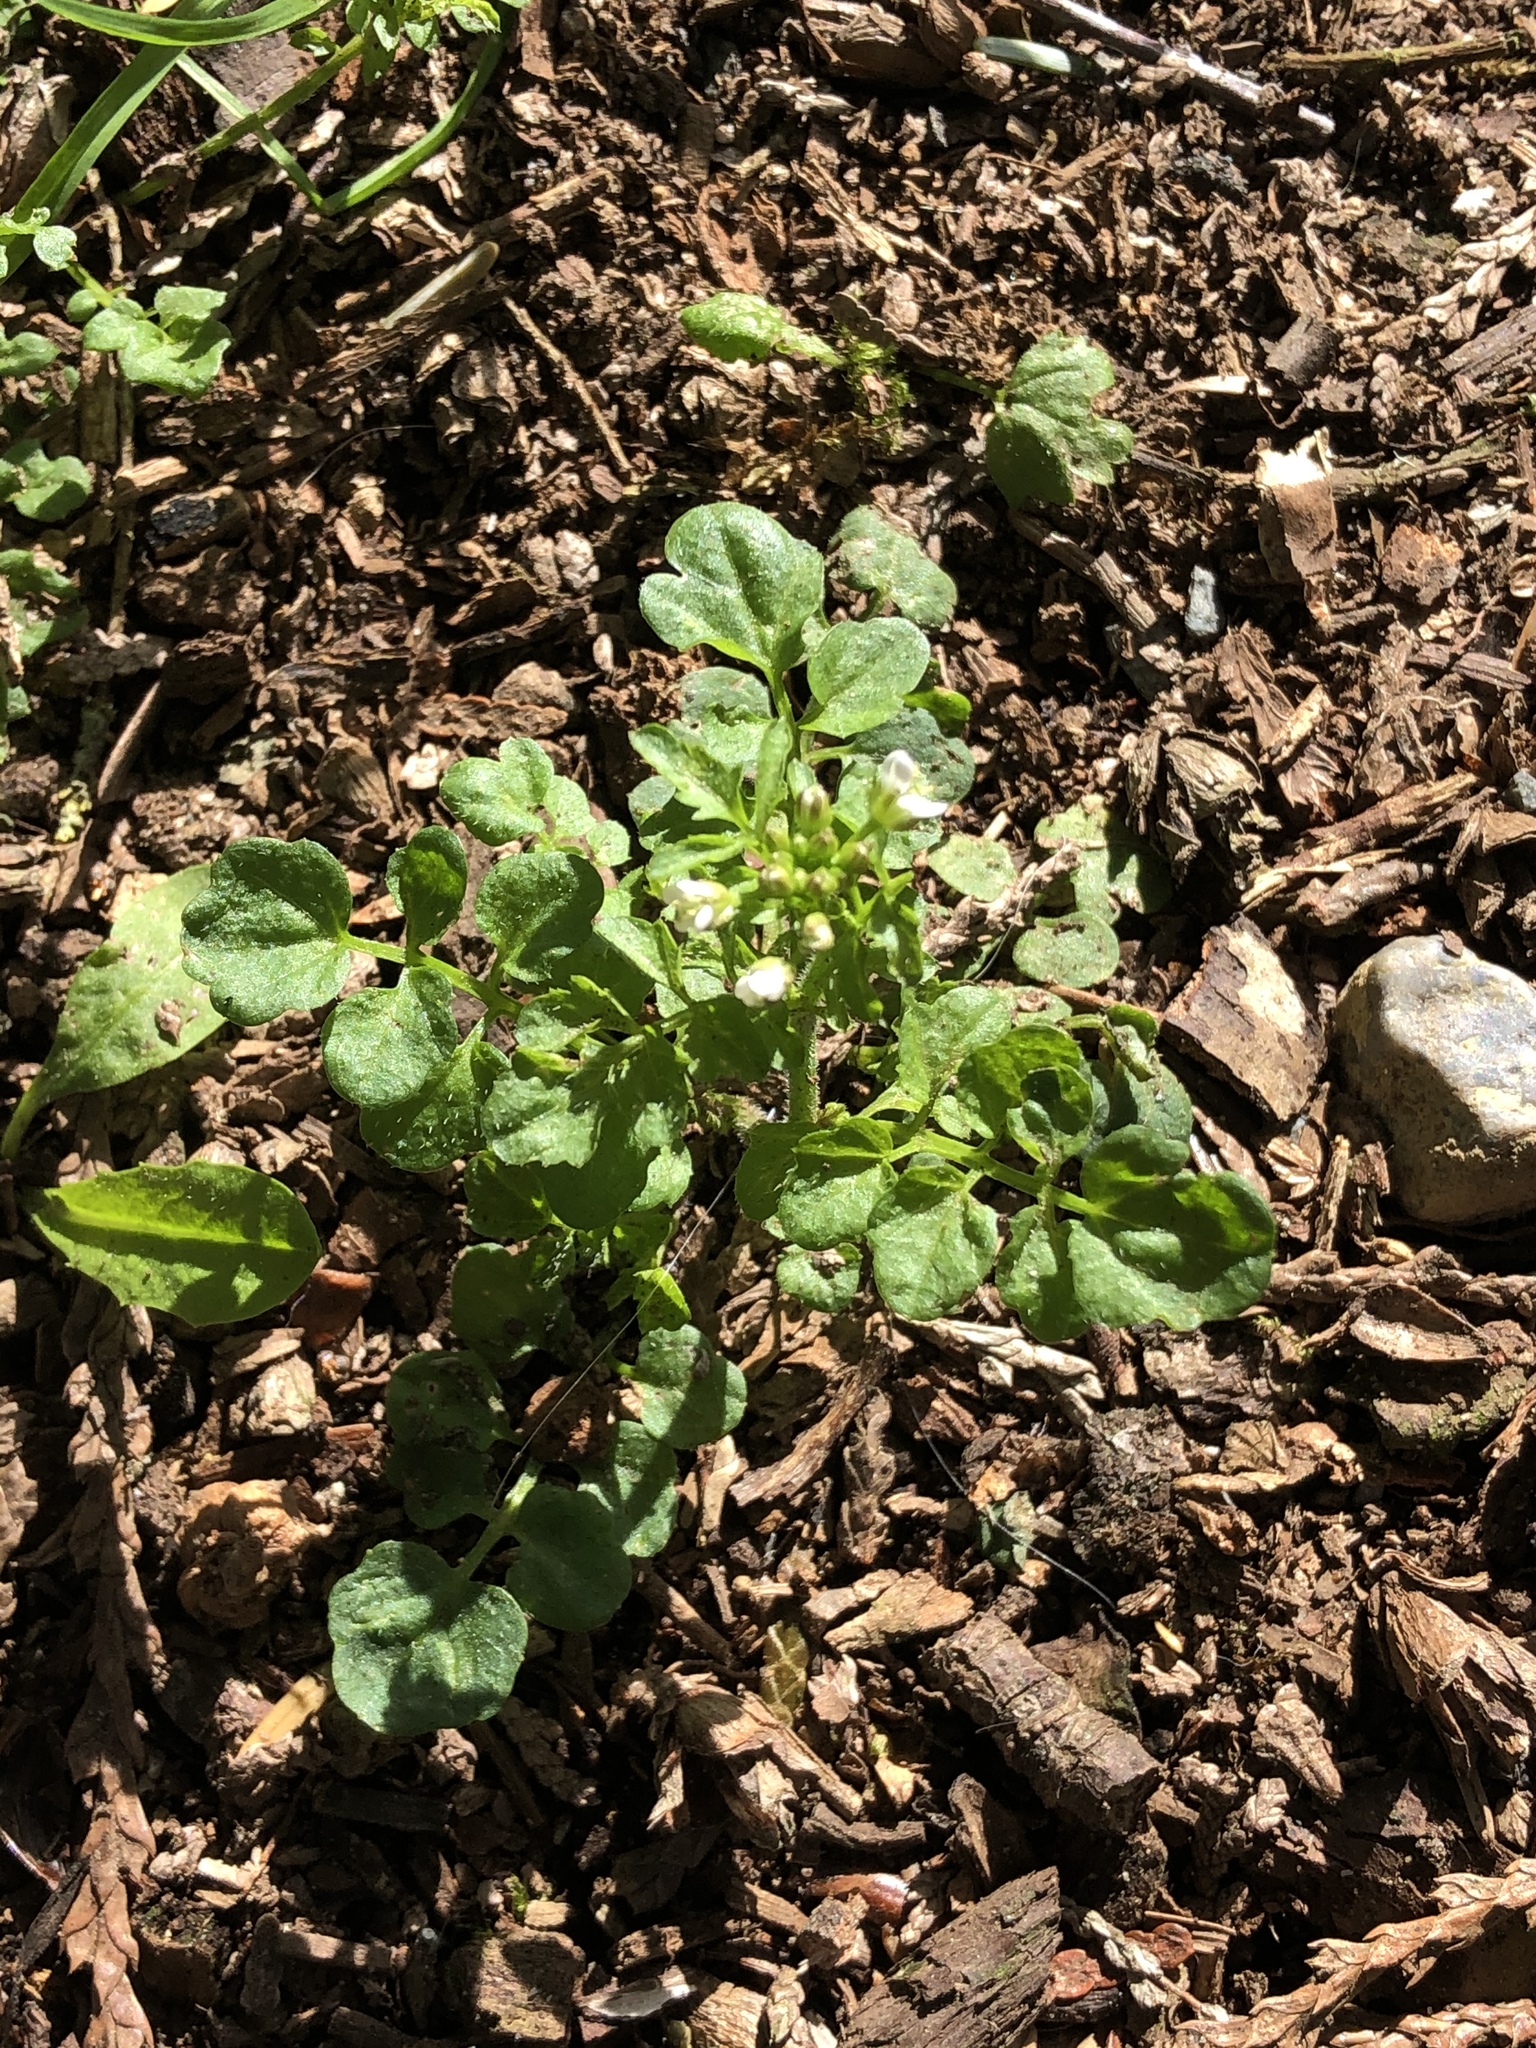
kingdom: Plantae
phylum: Tracheophyta
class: Magnoliopsida
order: Brassicales
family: Brassicaceae
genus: Cardamine
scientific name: Cardamine flexuosa
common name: Woodland bittercress
